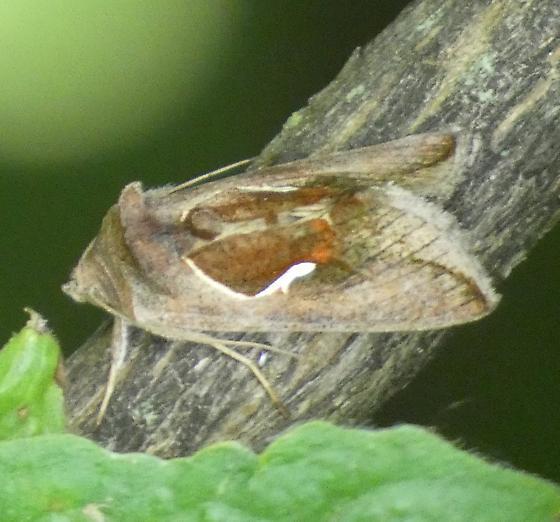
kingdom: Animalia
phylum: Arthropoda
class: Insecta
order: Lepidoptera
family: Noctuidae
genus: Anagrapha
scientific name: Anagrapha falcifera
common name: Celery looper
